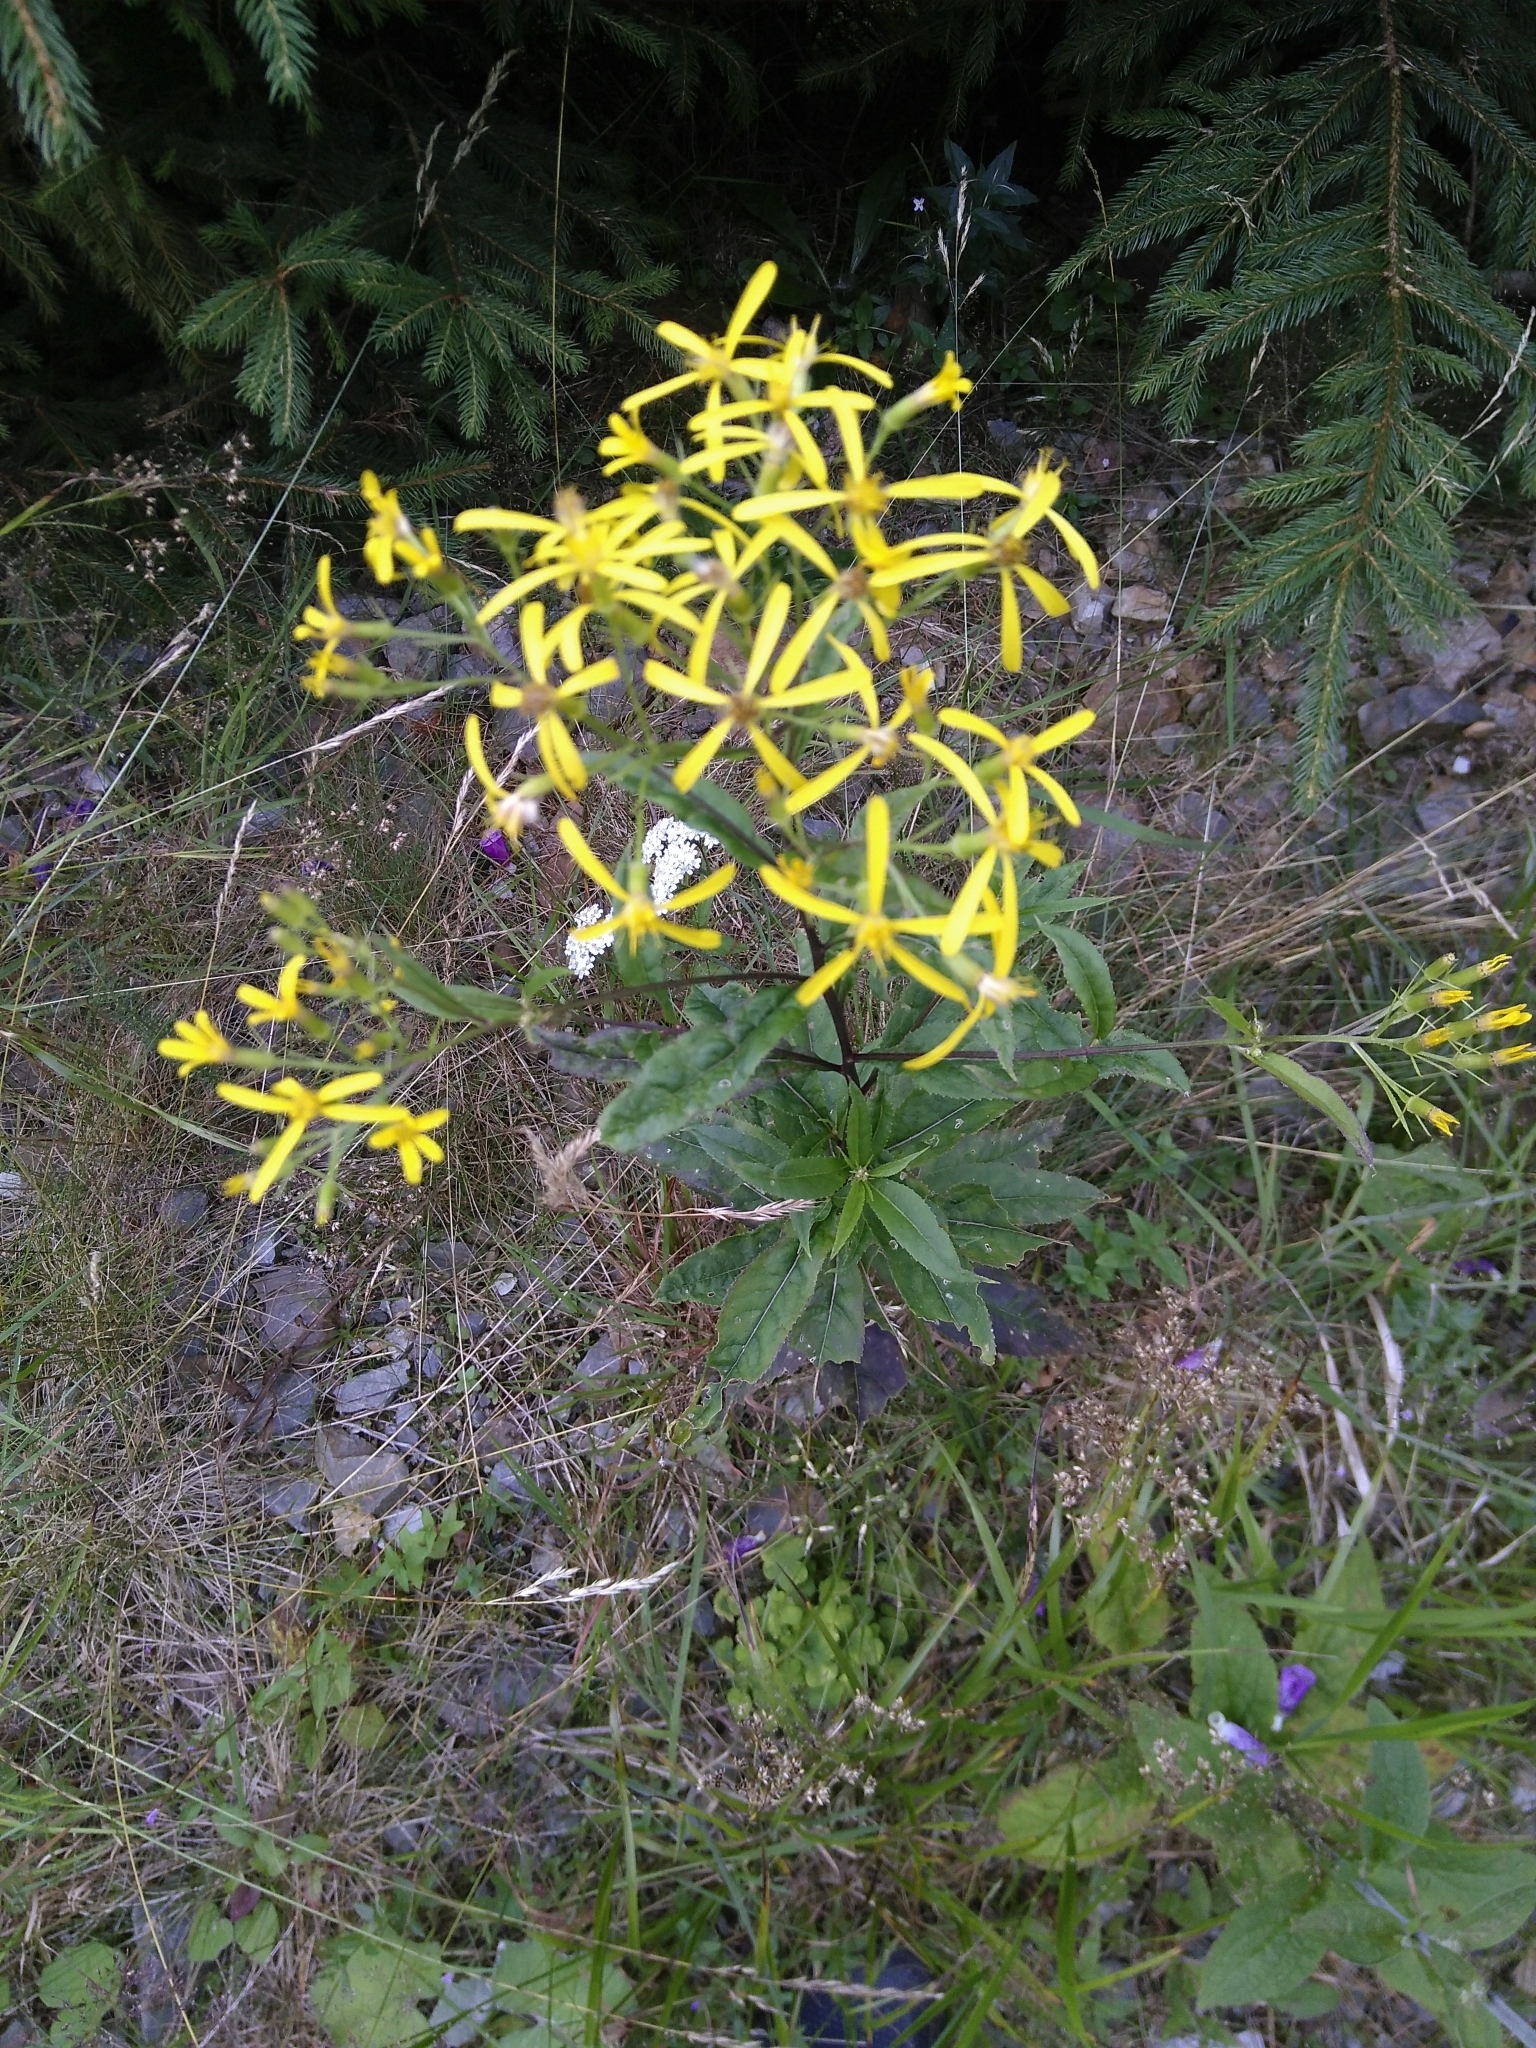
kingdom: Plantae
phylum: Tracheophyta
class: Magnoliopsida
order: Asterales
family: Asteraceae
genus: Senecio
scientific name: Senecio ovatus
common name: Wood ragwort
